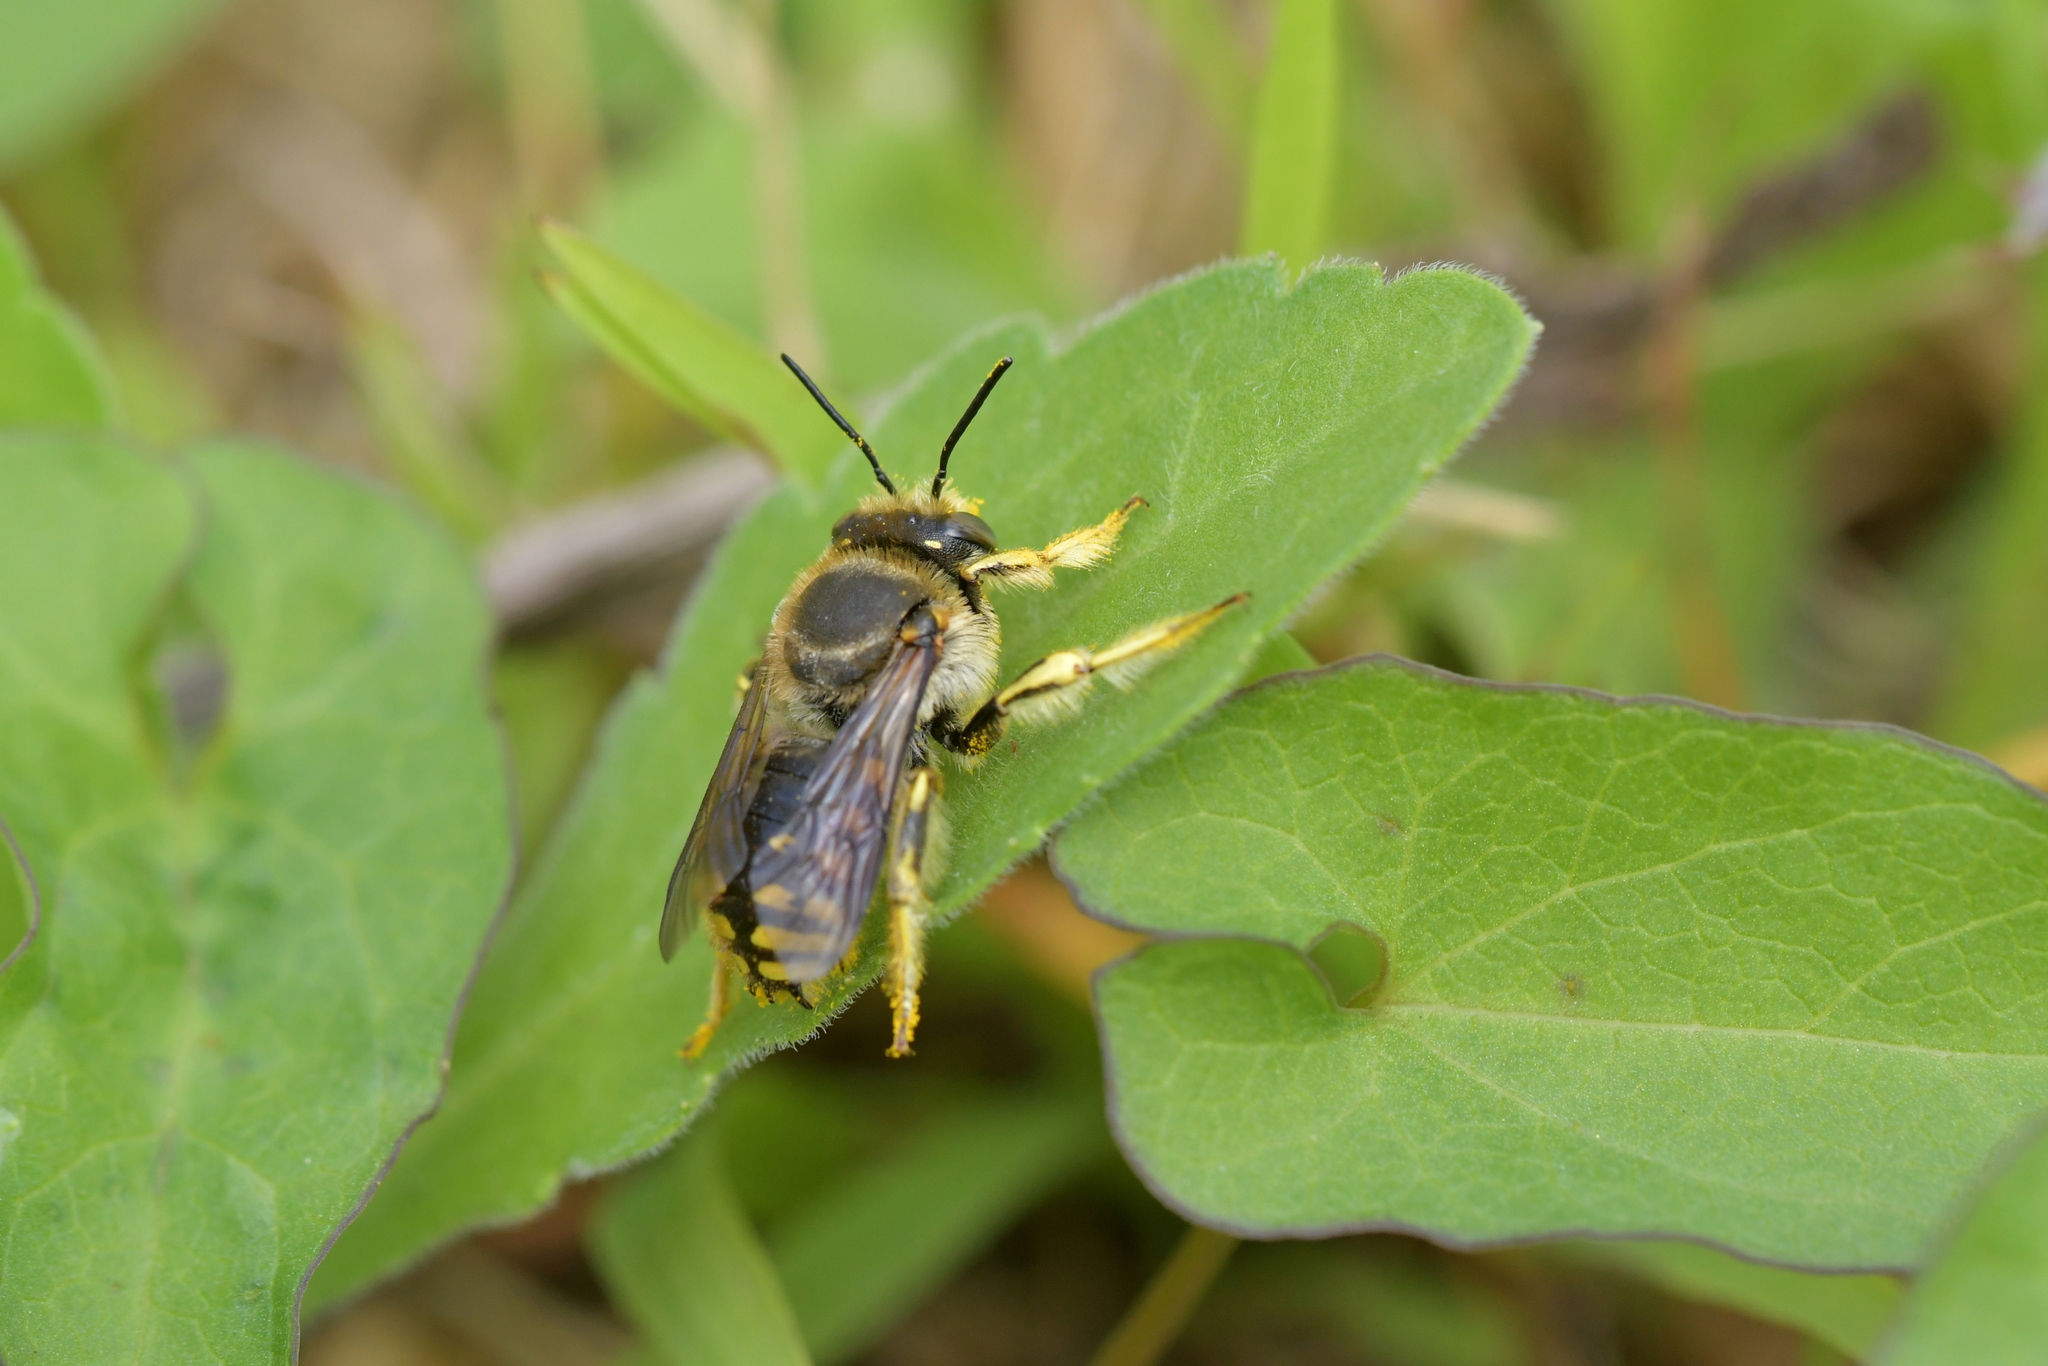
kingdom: Animalia
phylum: Arthropoda
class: Insecta
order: Hymenoptera
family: Megachilidae
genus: Anthidium
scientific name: Anthidium manicatum
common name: Wool carder bee
